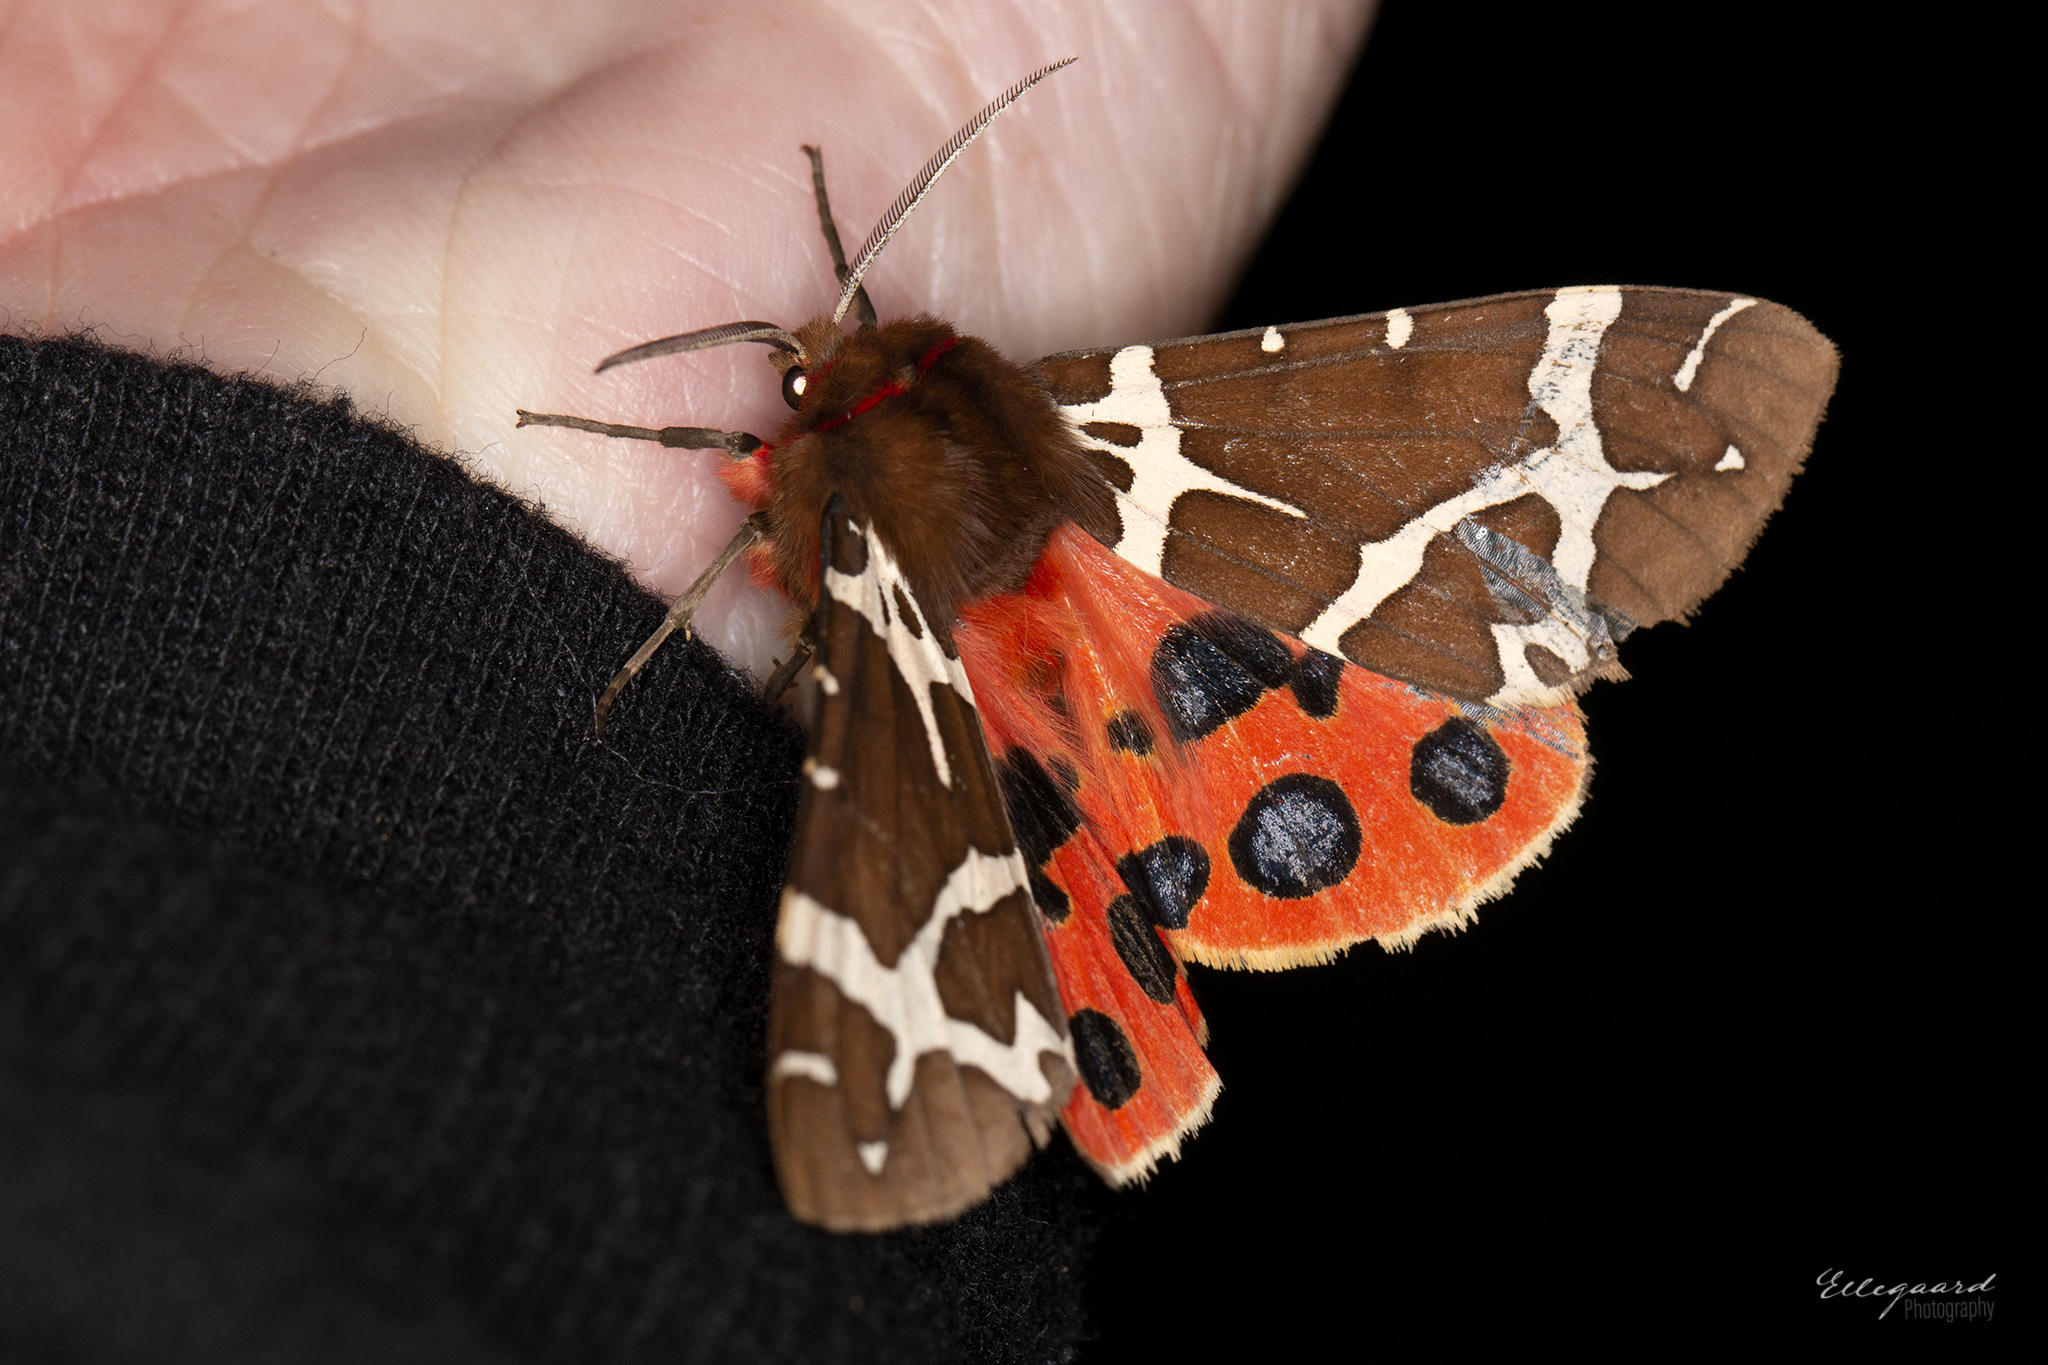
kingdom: Animalia
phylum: Arthropoda
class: Insecta
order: Lepidoptera
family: Erebidae
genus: Arctia
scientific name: Arctia caja
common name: Garden tiger
